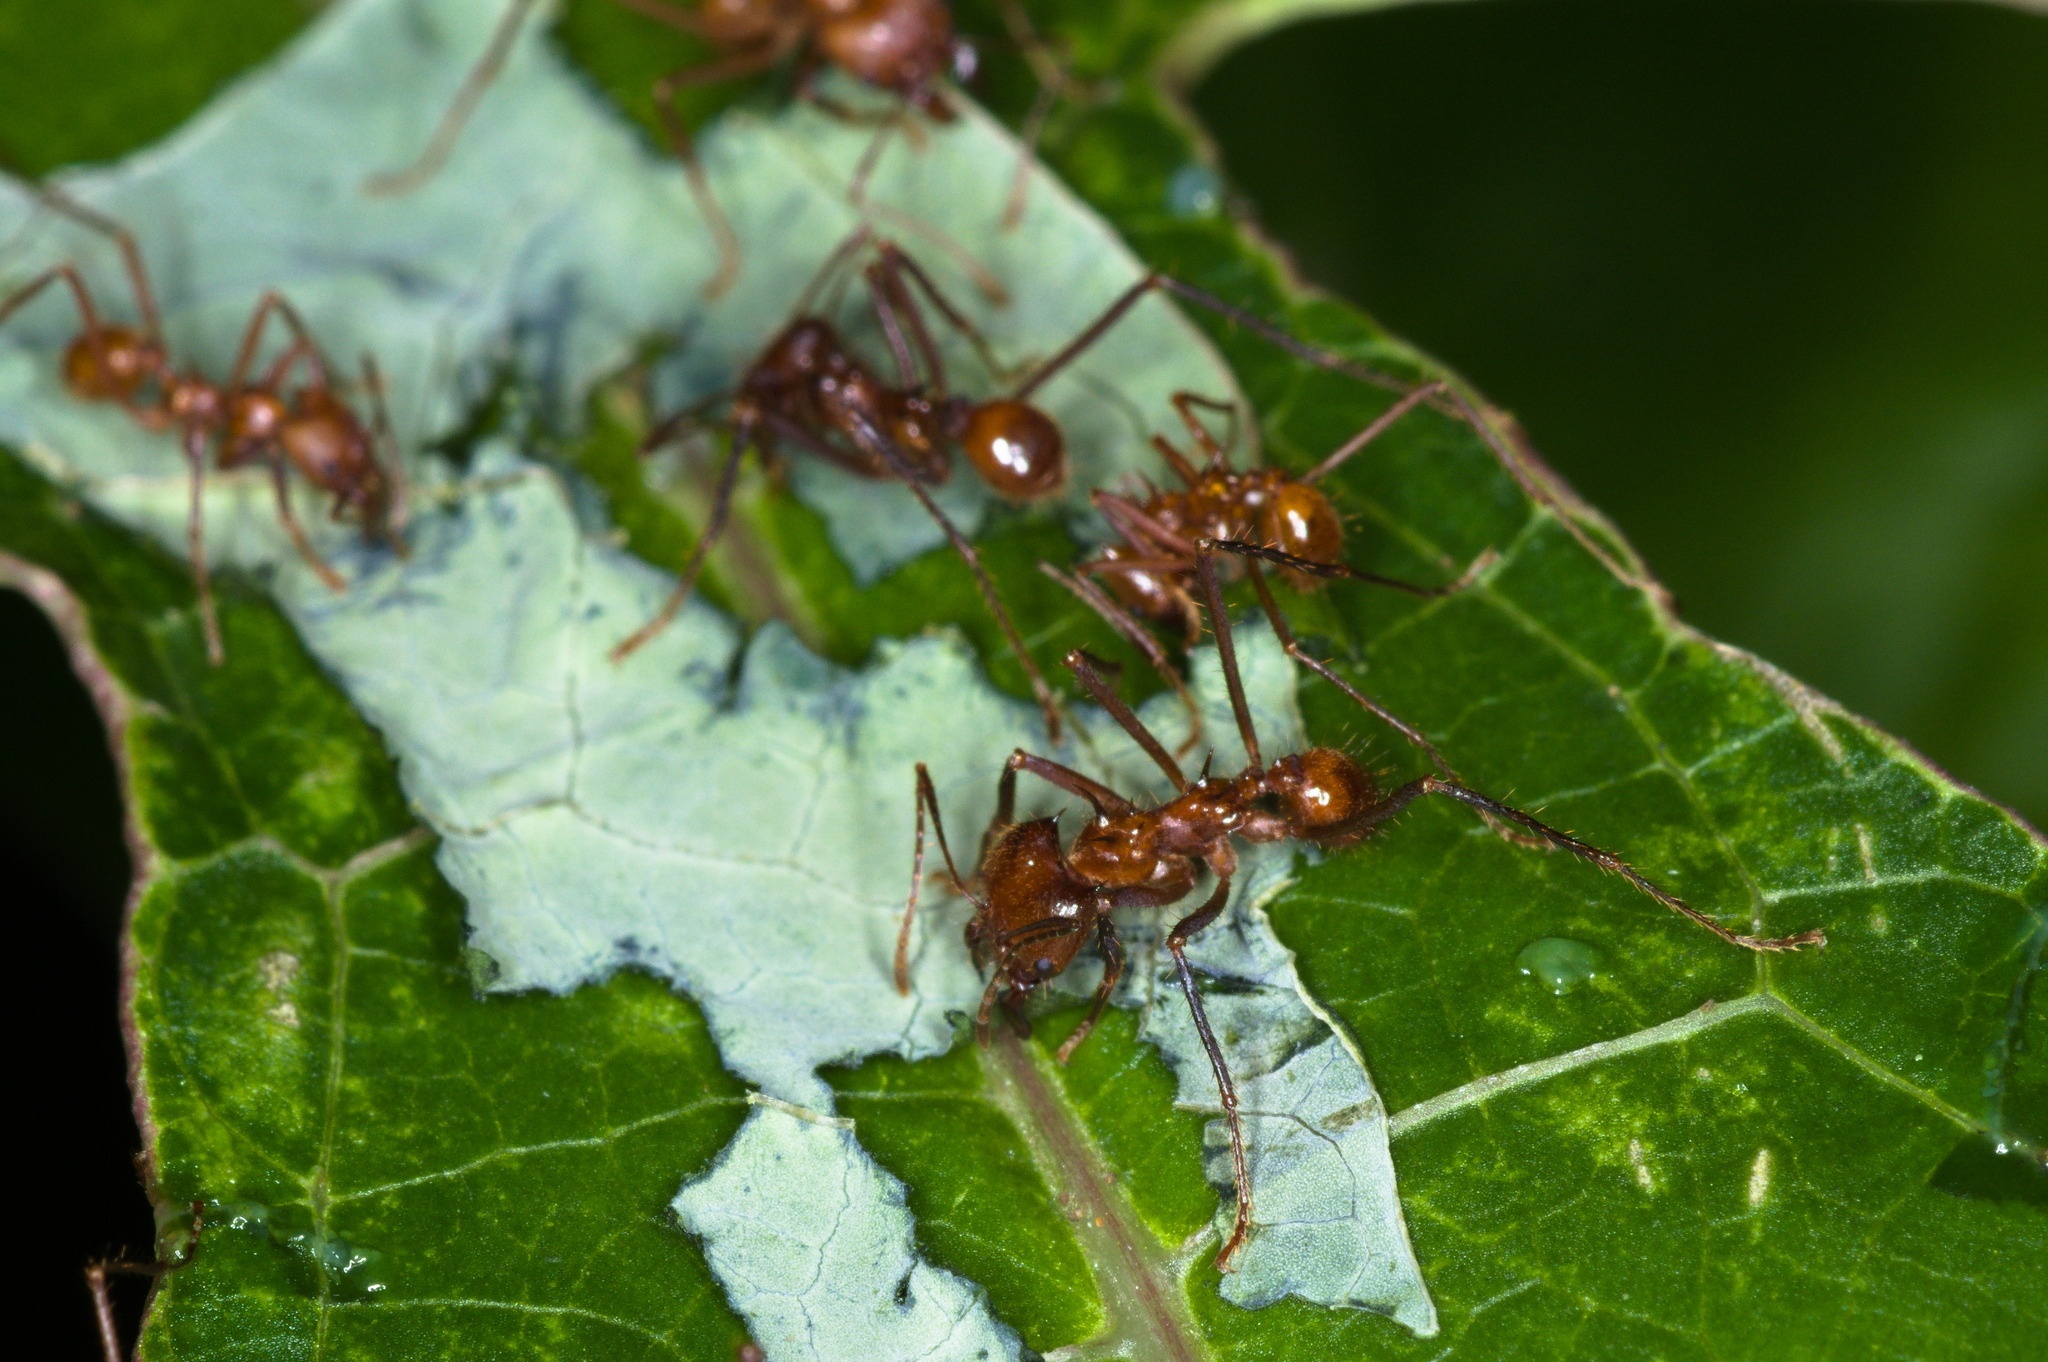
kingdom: Animalia
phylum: Arthropoda
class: Insecta
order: Hymenoptera
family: Formicidae
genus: Atta
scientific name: Atta cephalotes
